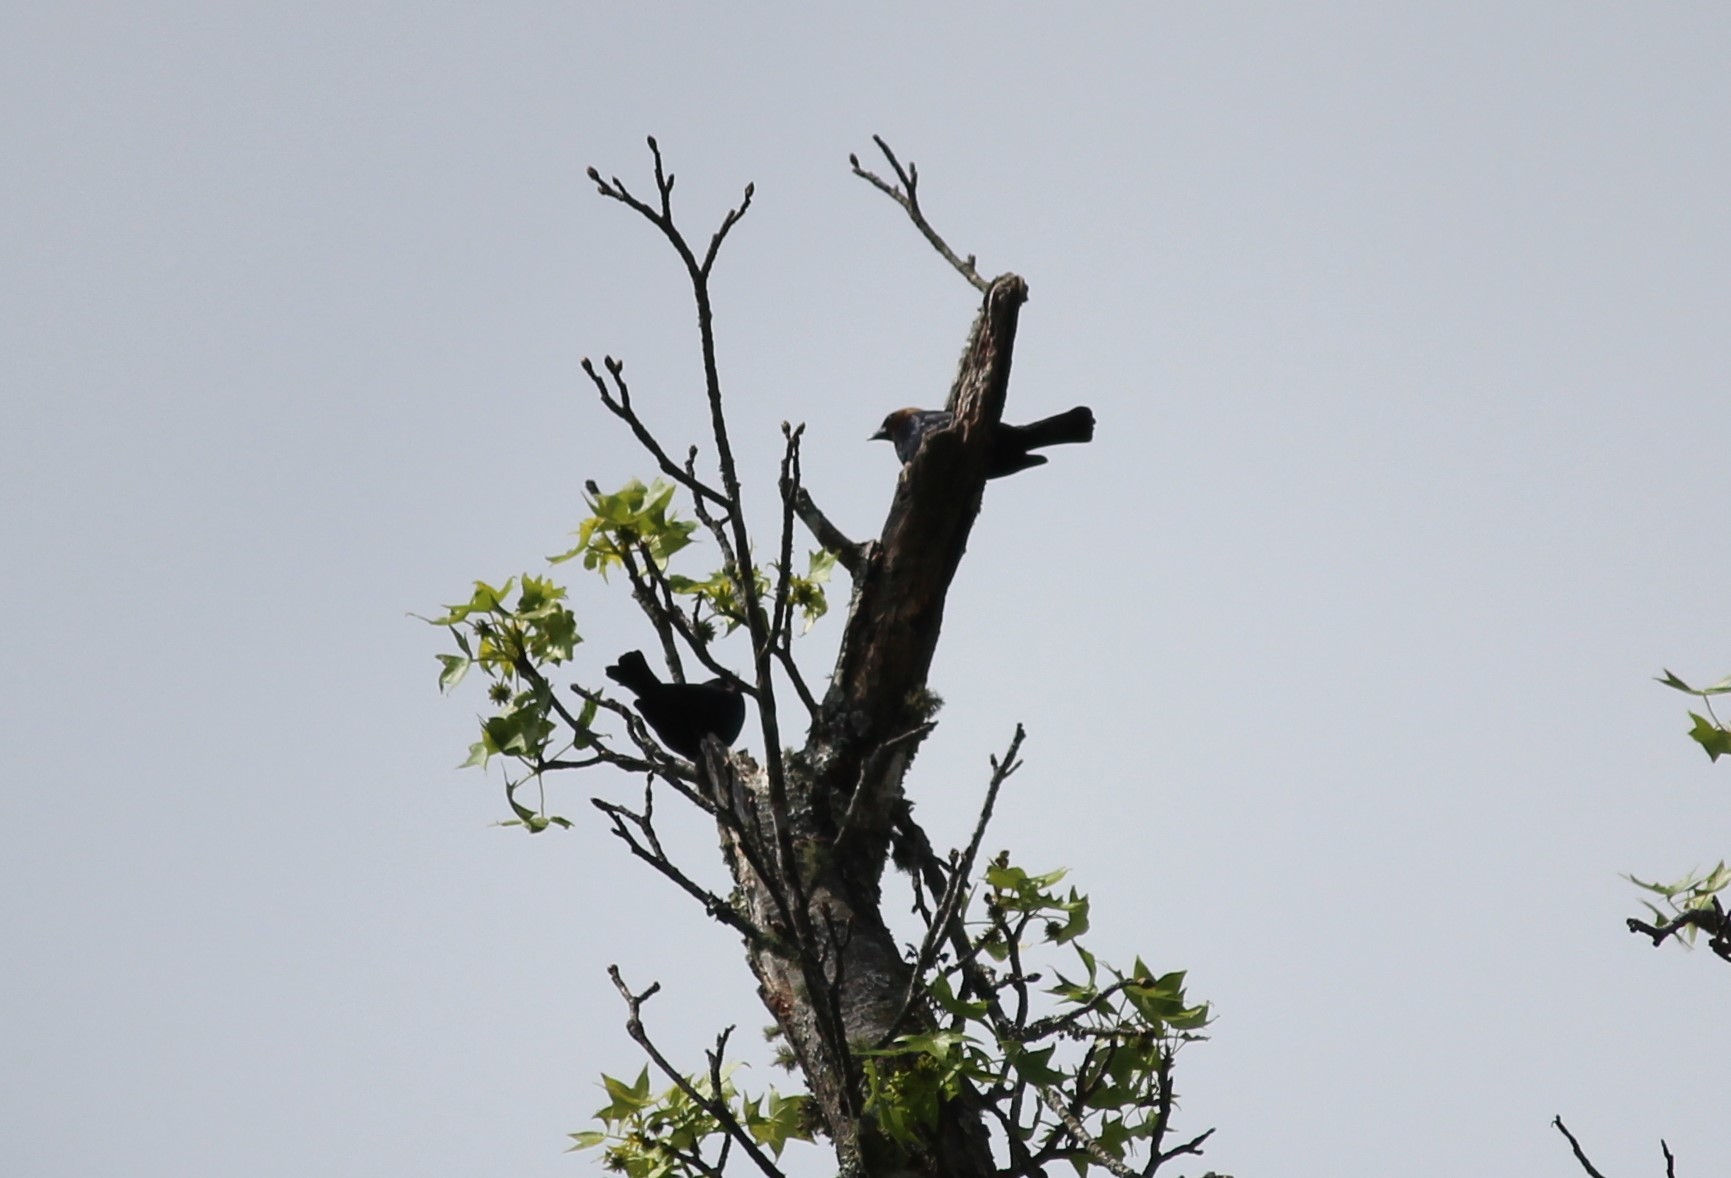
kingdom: Animalia
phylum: Chordata
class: Aves
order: Passeriformes
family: Icteridae
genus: Molothrus
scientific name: Molothrus ater
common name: Brown-headed cowbird
